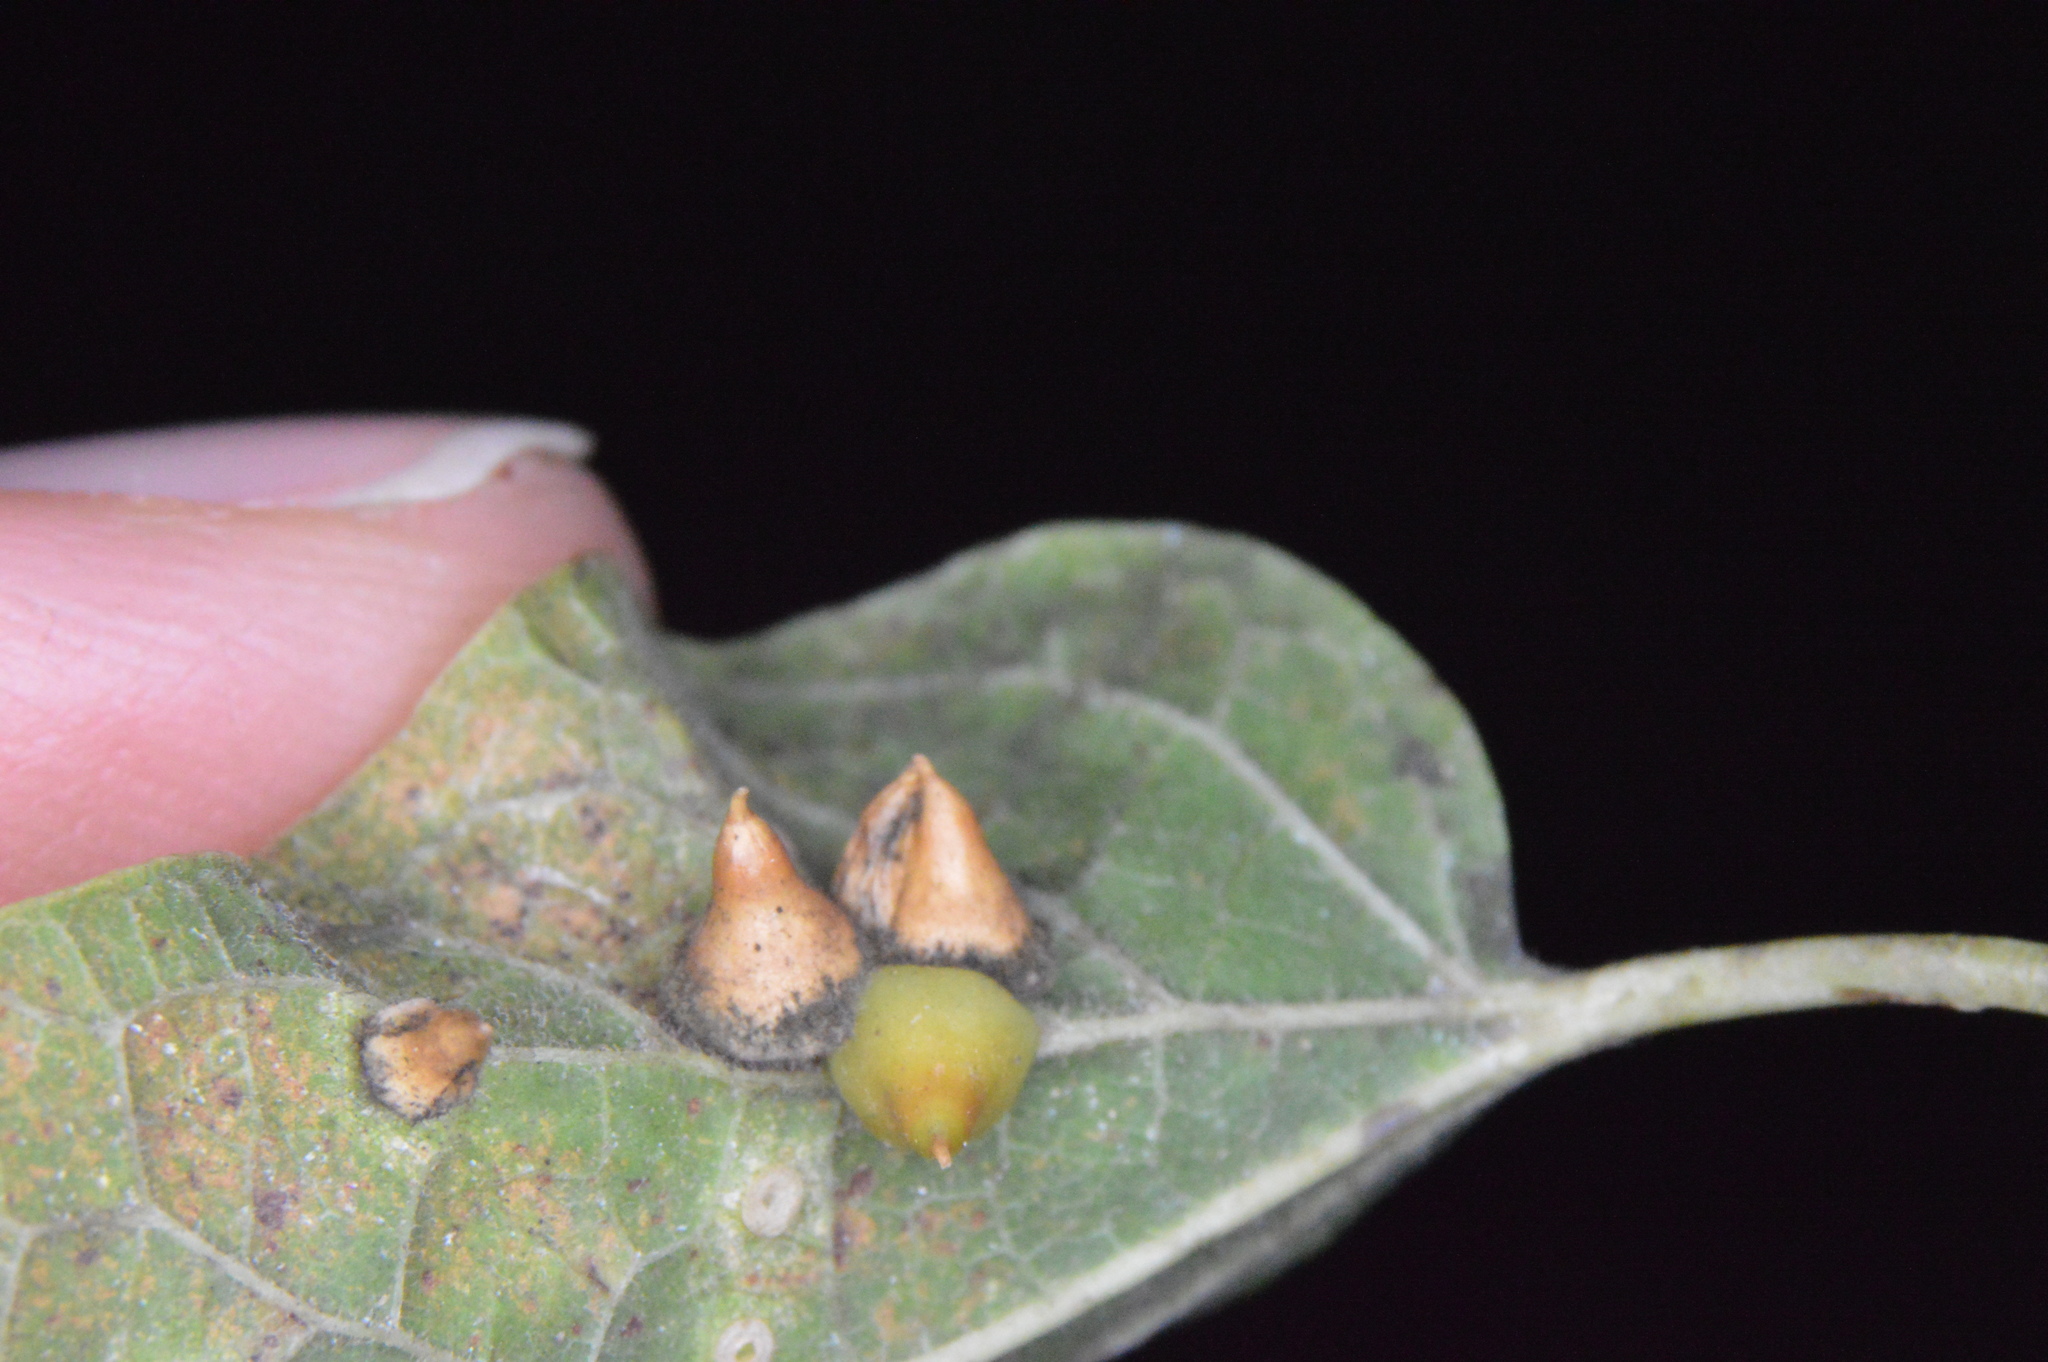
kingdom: Animalia
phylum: Arthropoda
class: Insecta
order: Diptera
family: Cecidomyiidae
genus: Celticecis
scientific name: Celticecis spiniformis
